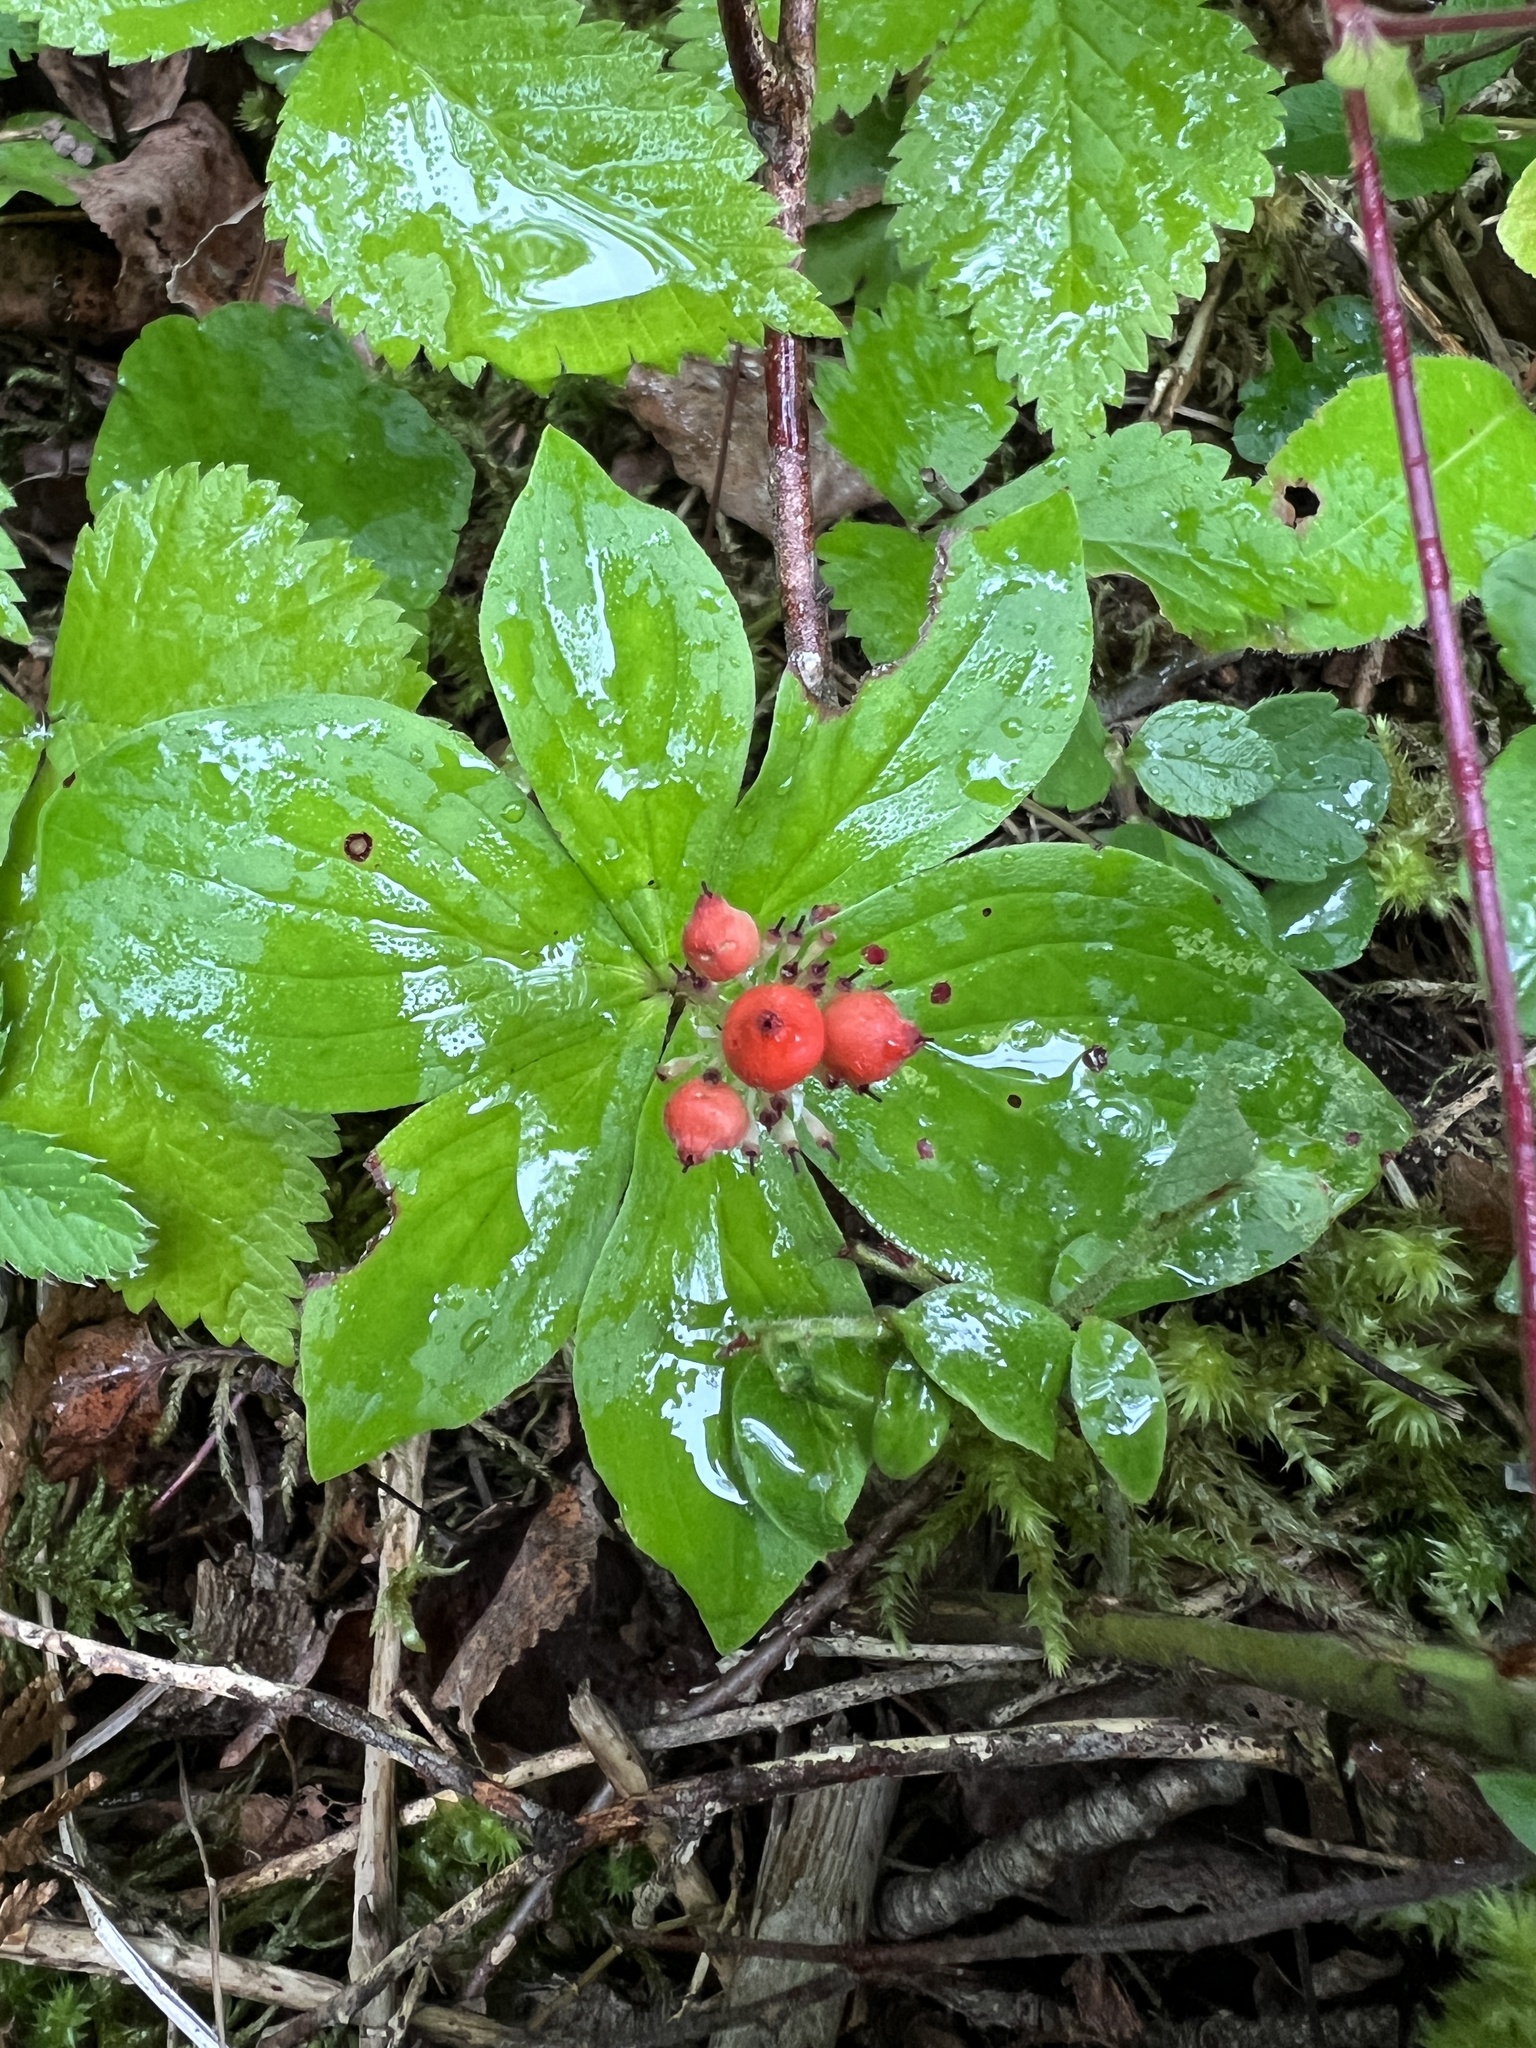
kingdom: Plantae
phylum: Tracheophyta
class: Magnoliopsida
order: Cornales
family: Cornaceae
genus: Cornus
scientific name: Cornus canadensis
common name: Creeping dogwood
